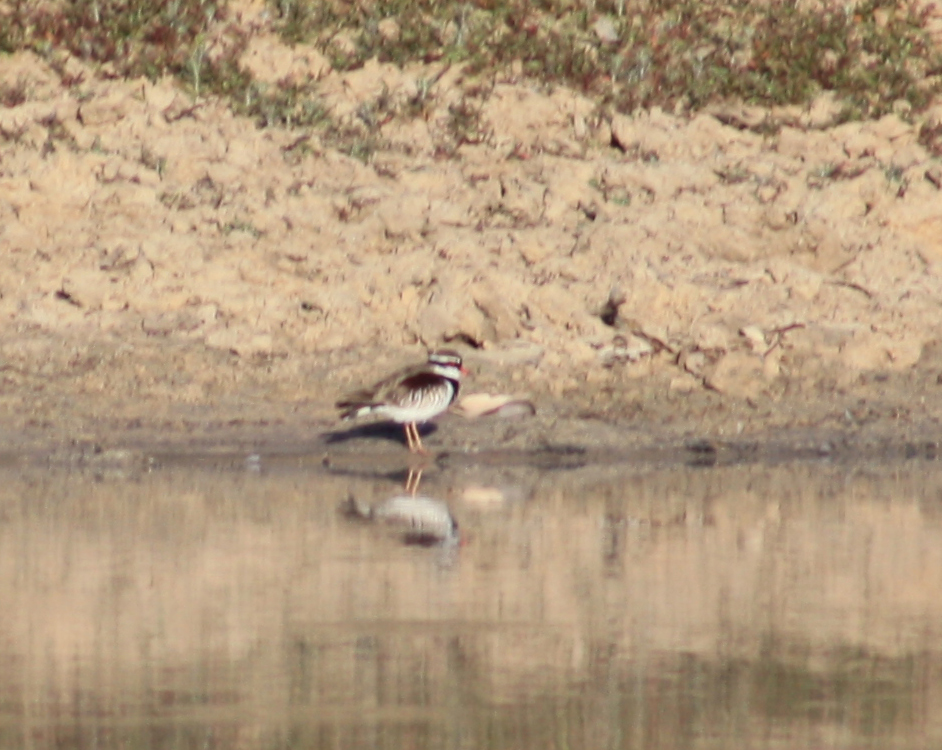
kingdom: Animalia
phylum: Chordata
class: Aves
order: Charadriiformes
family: Charadriidae
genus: Elseyornis
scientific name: Elseyornis melanops
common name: Black-fronted dotterel
